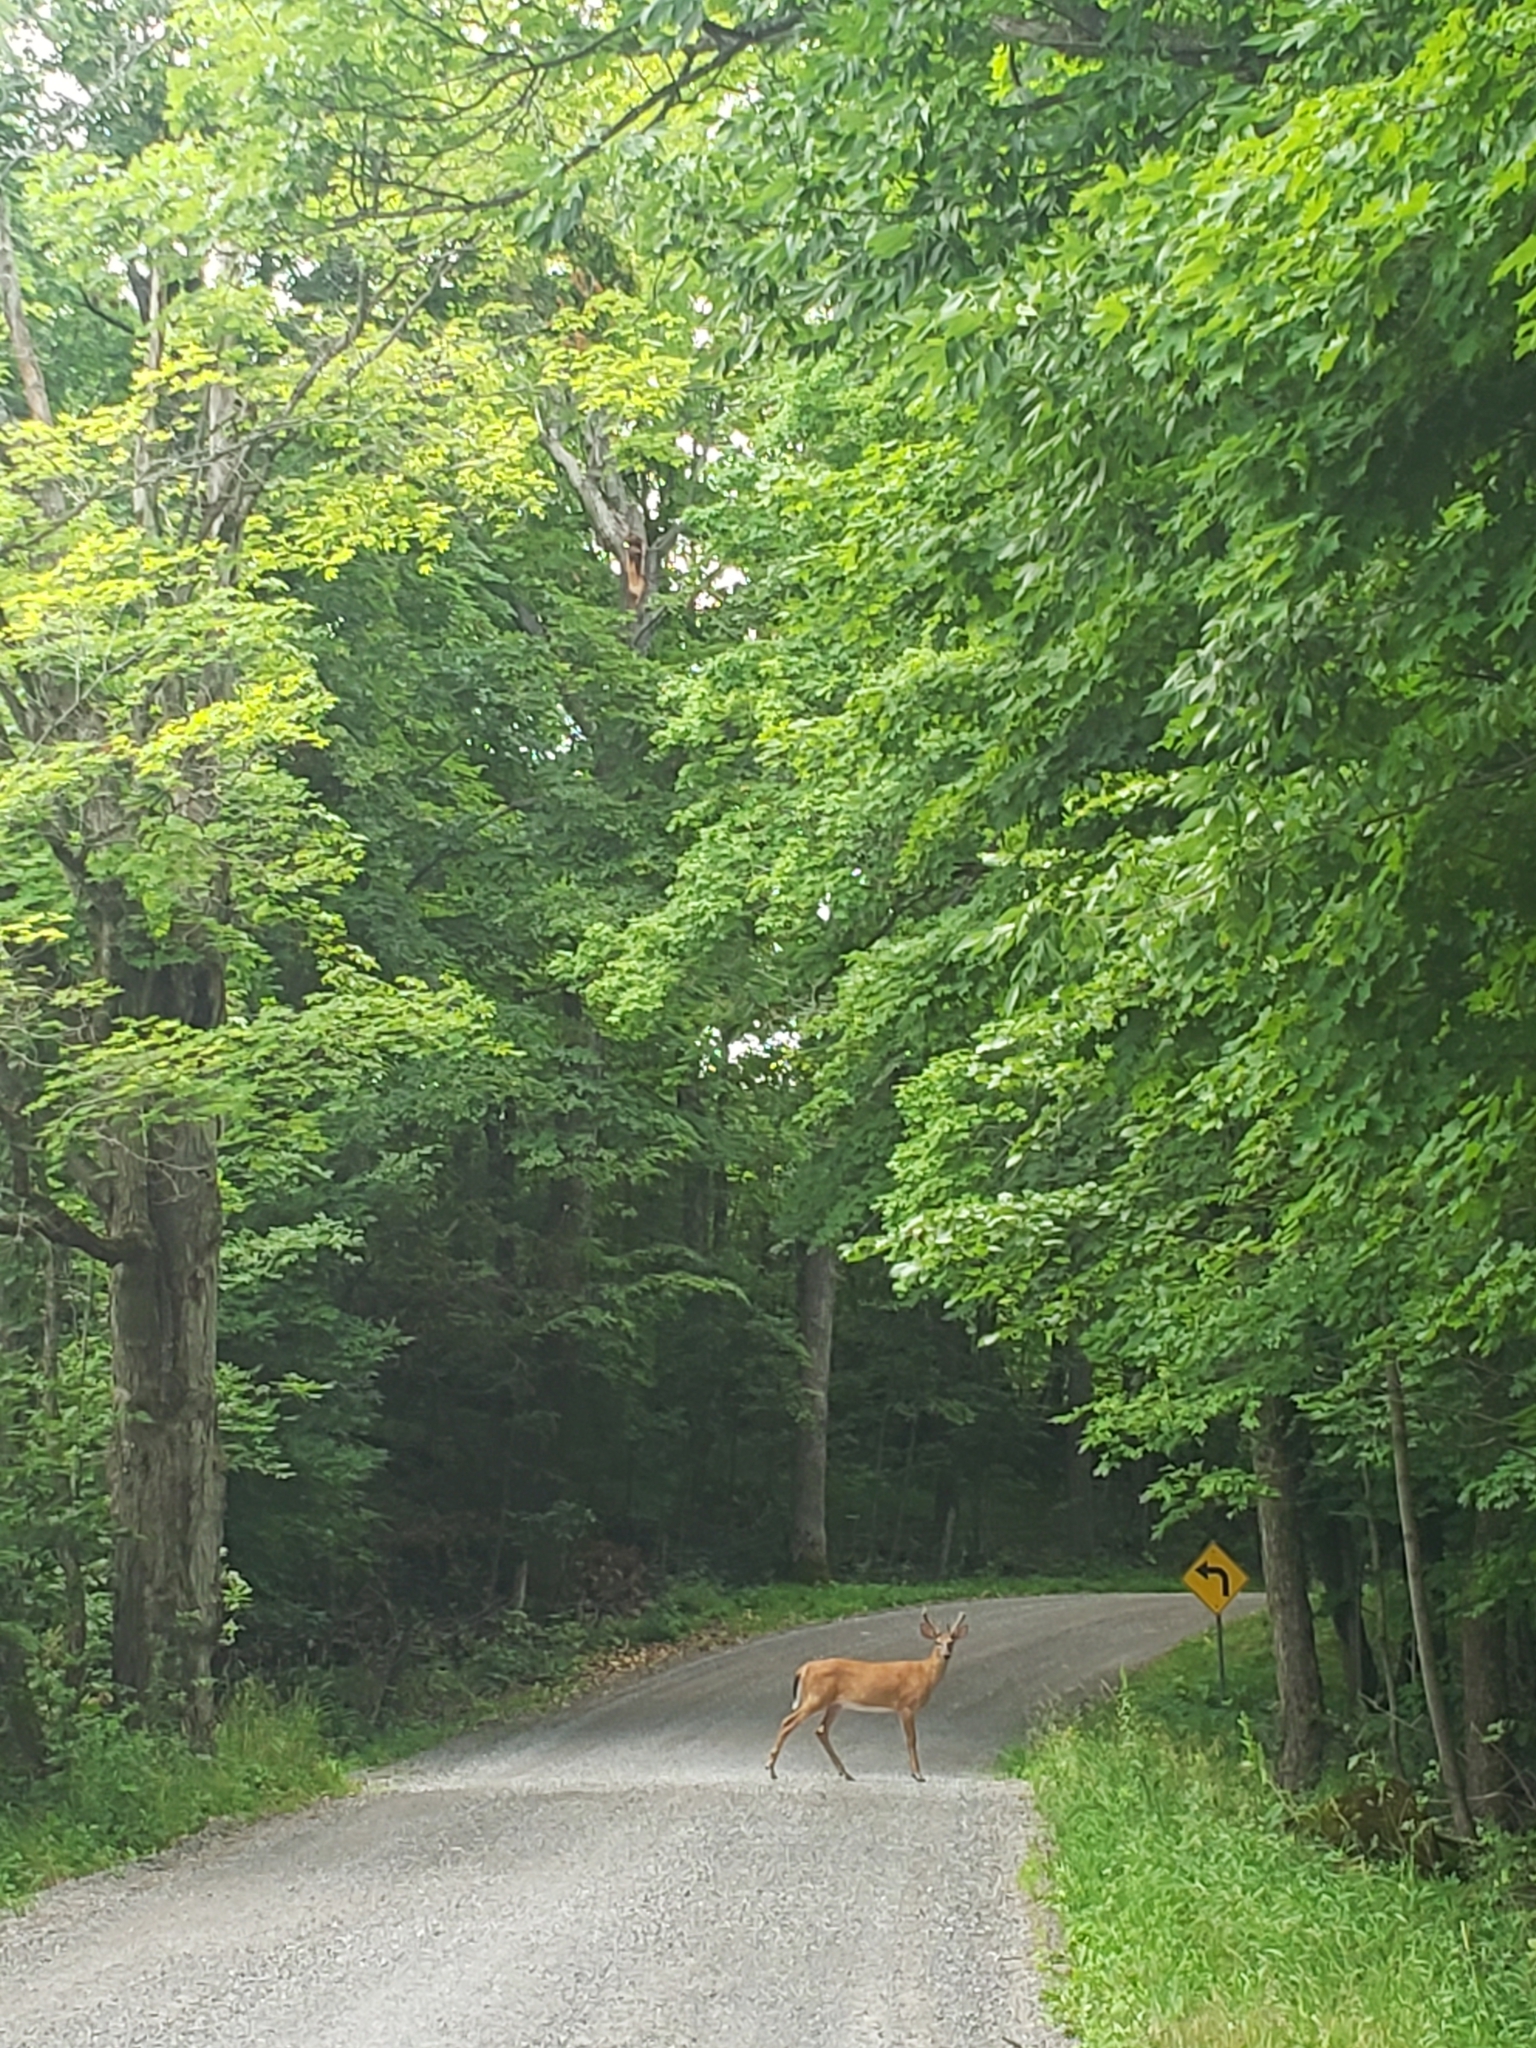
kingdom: Animalia
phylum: Chordata
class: Mammalia
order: Artiodactyla
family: Cervidae
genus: Odocoileus
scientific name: Odocoileus virginianus
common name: White-tailed deer
